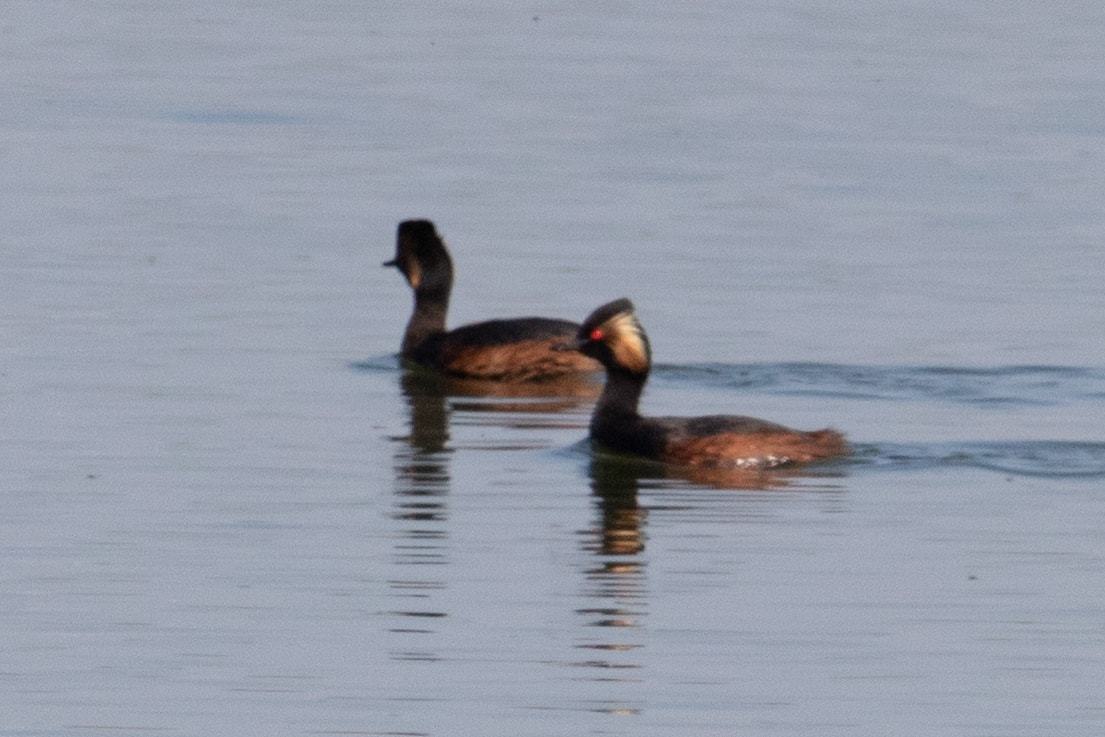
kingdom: Animalia
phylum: Chordata
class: Aves
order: Podicipediformes
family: Podicipedidae
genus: Podiceps
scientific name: Podiceps nigricollis
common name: Black-necked grebe
